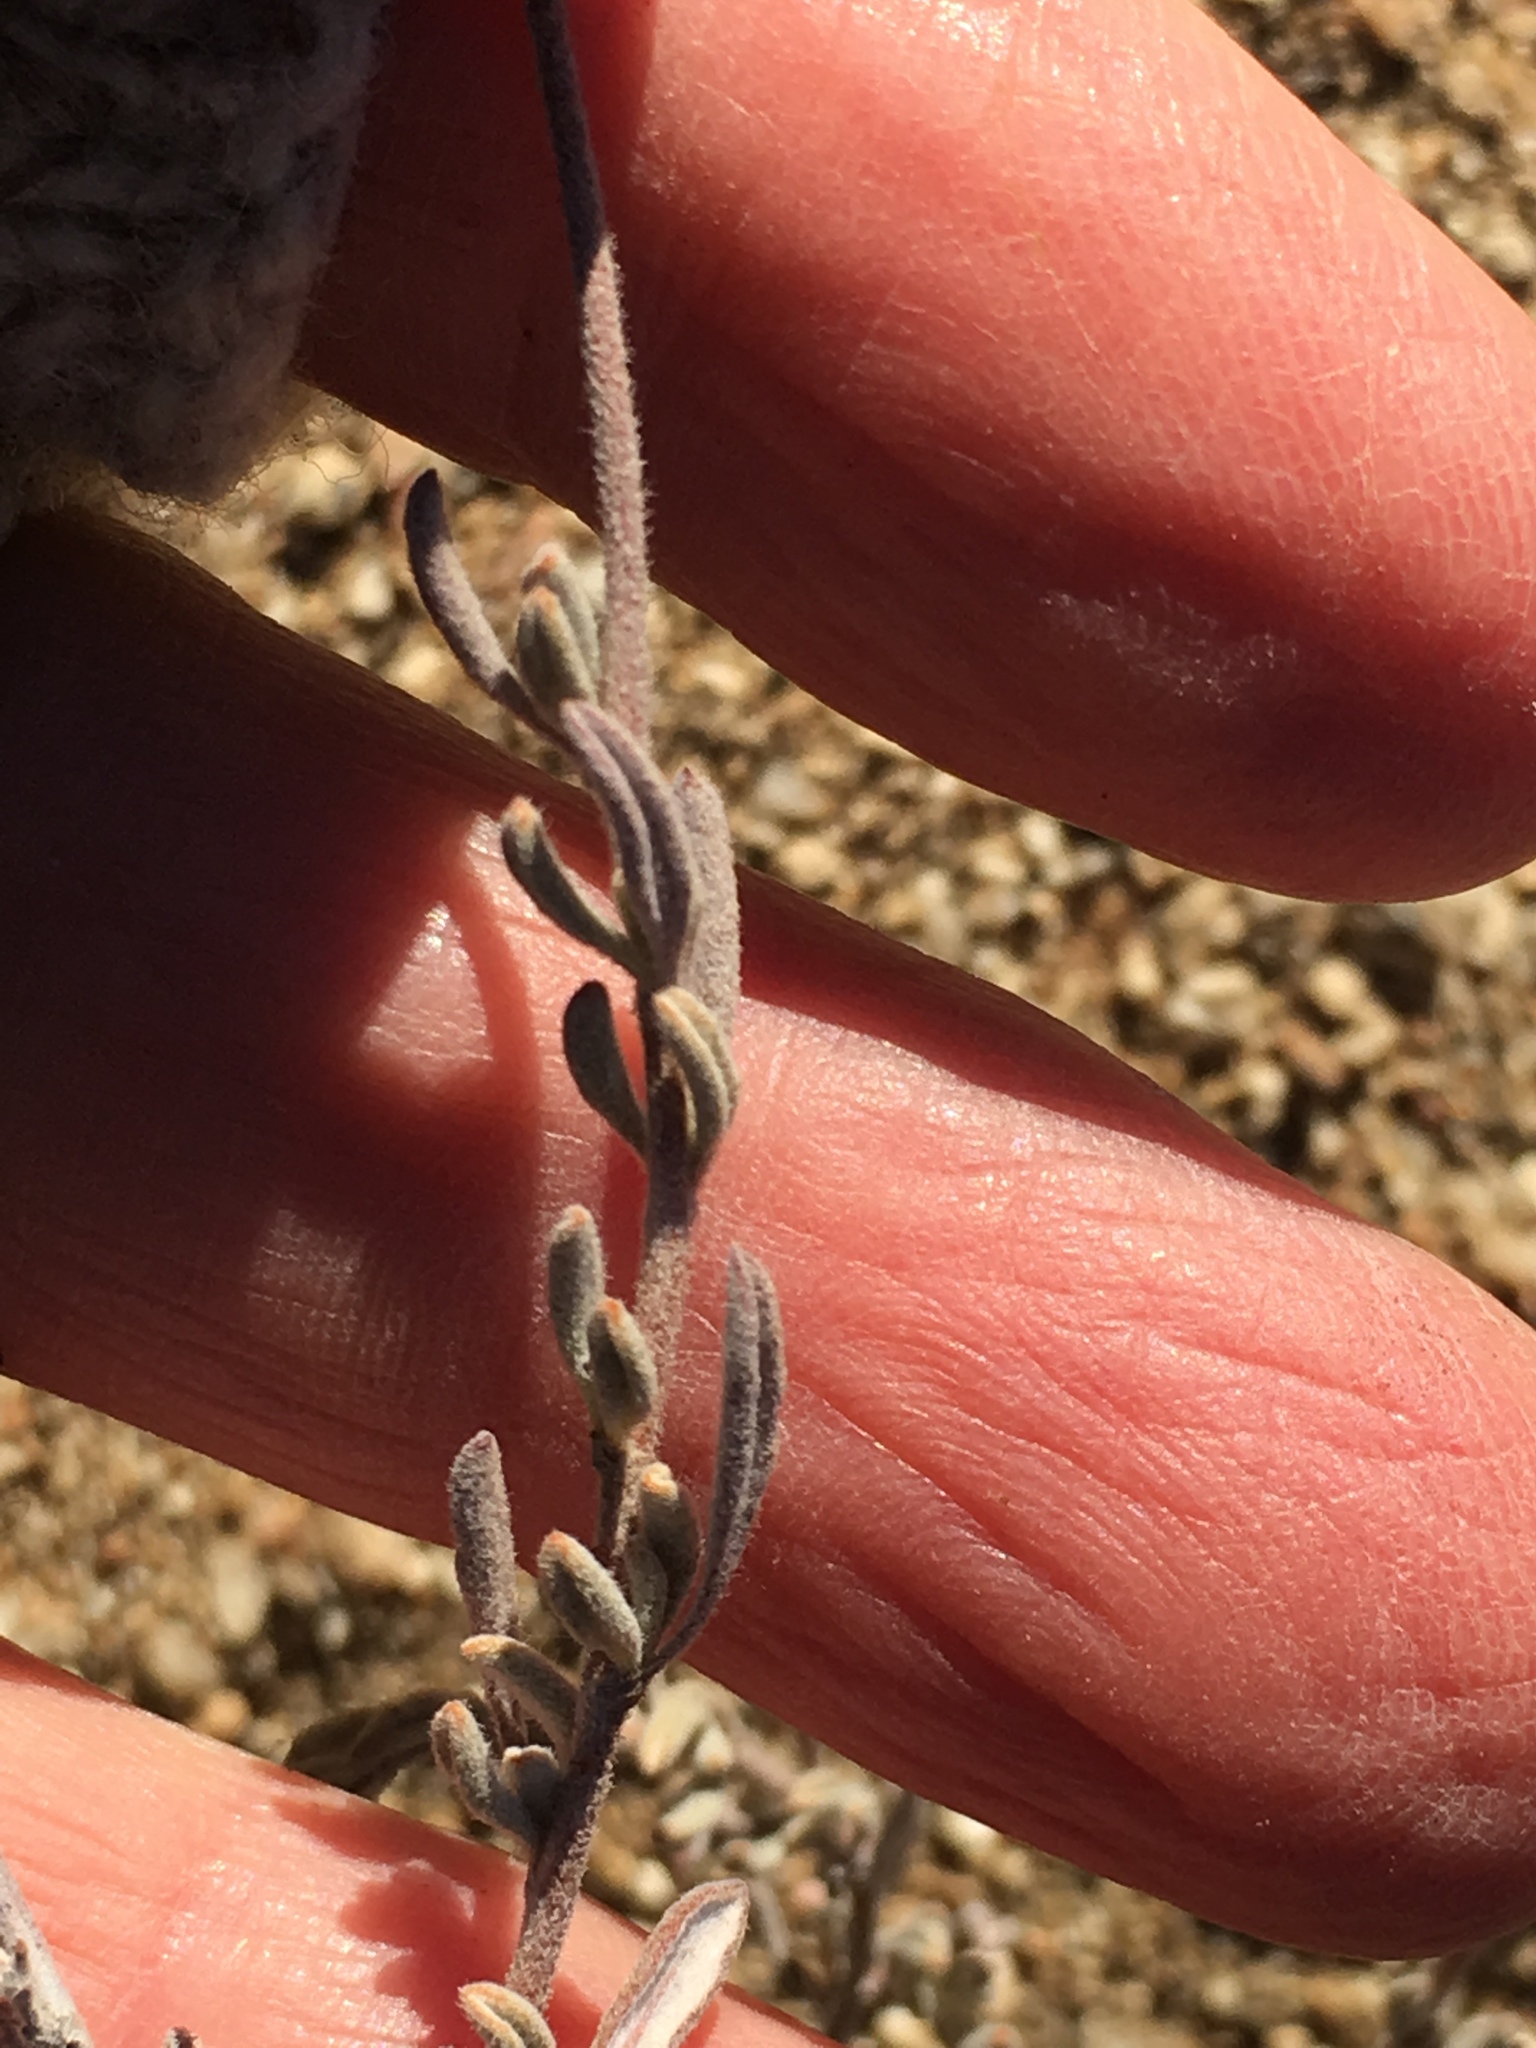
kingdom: Plantae
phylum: Tracheophyta
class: Magnoliopsida
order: Caryophyllales
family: Polygonaceae
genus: Eriogonum
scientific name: Eriogonum fasciculatum
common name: California wild buckwheat
